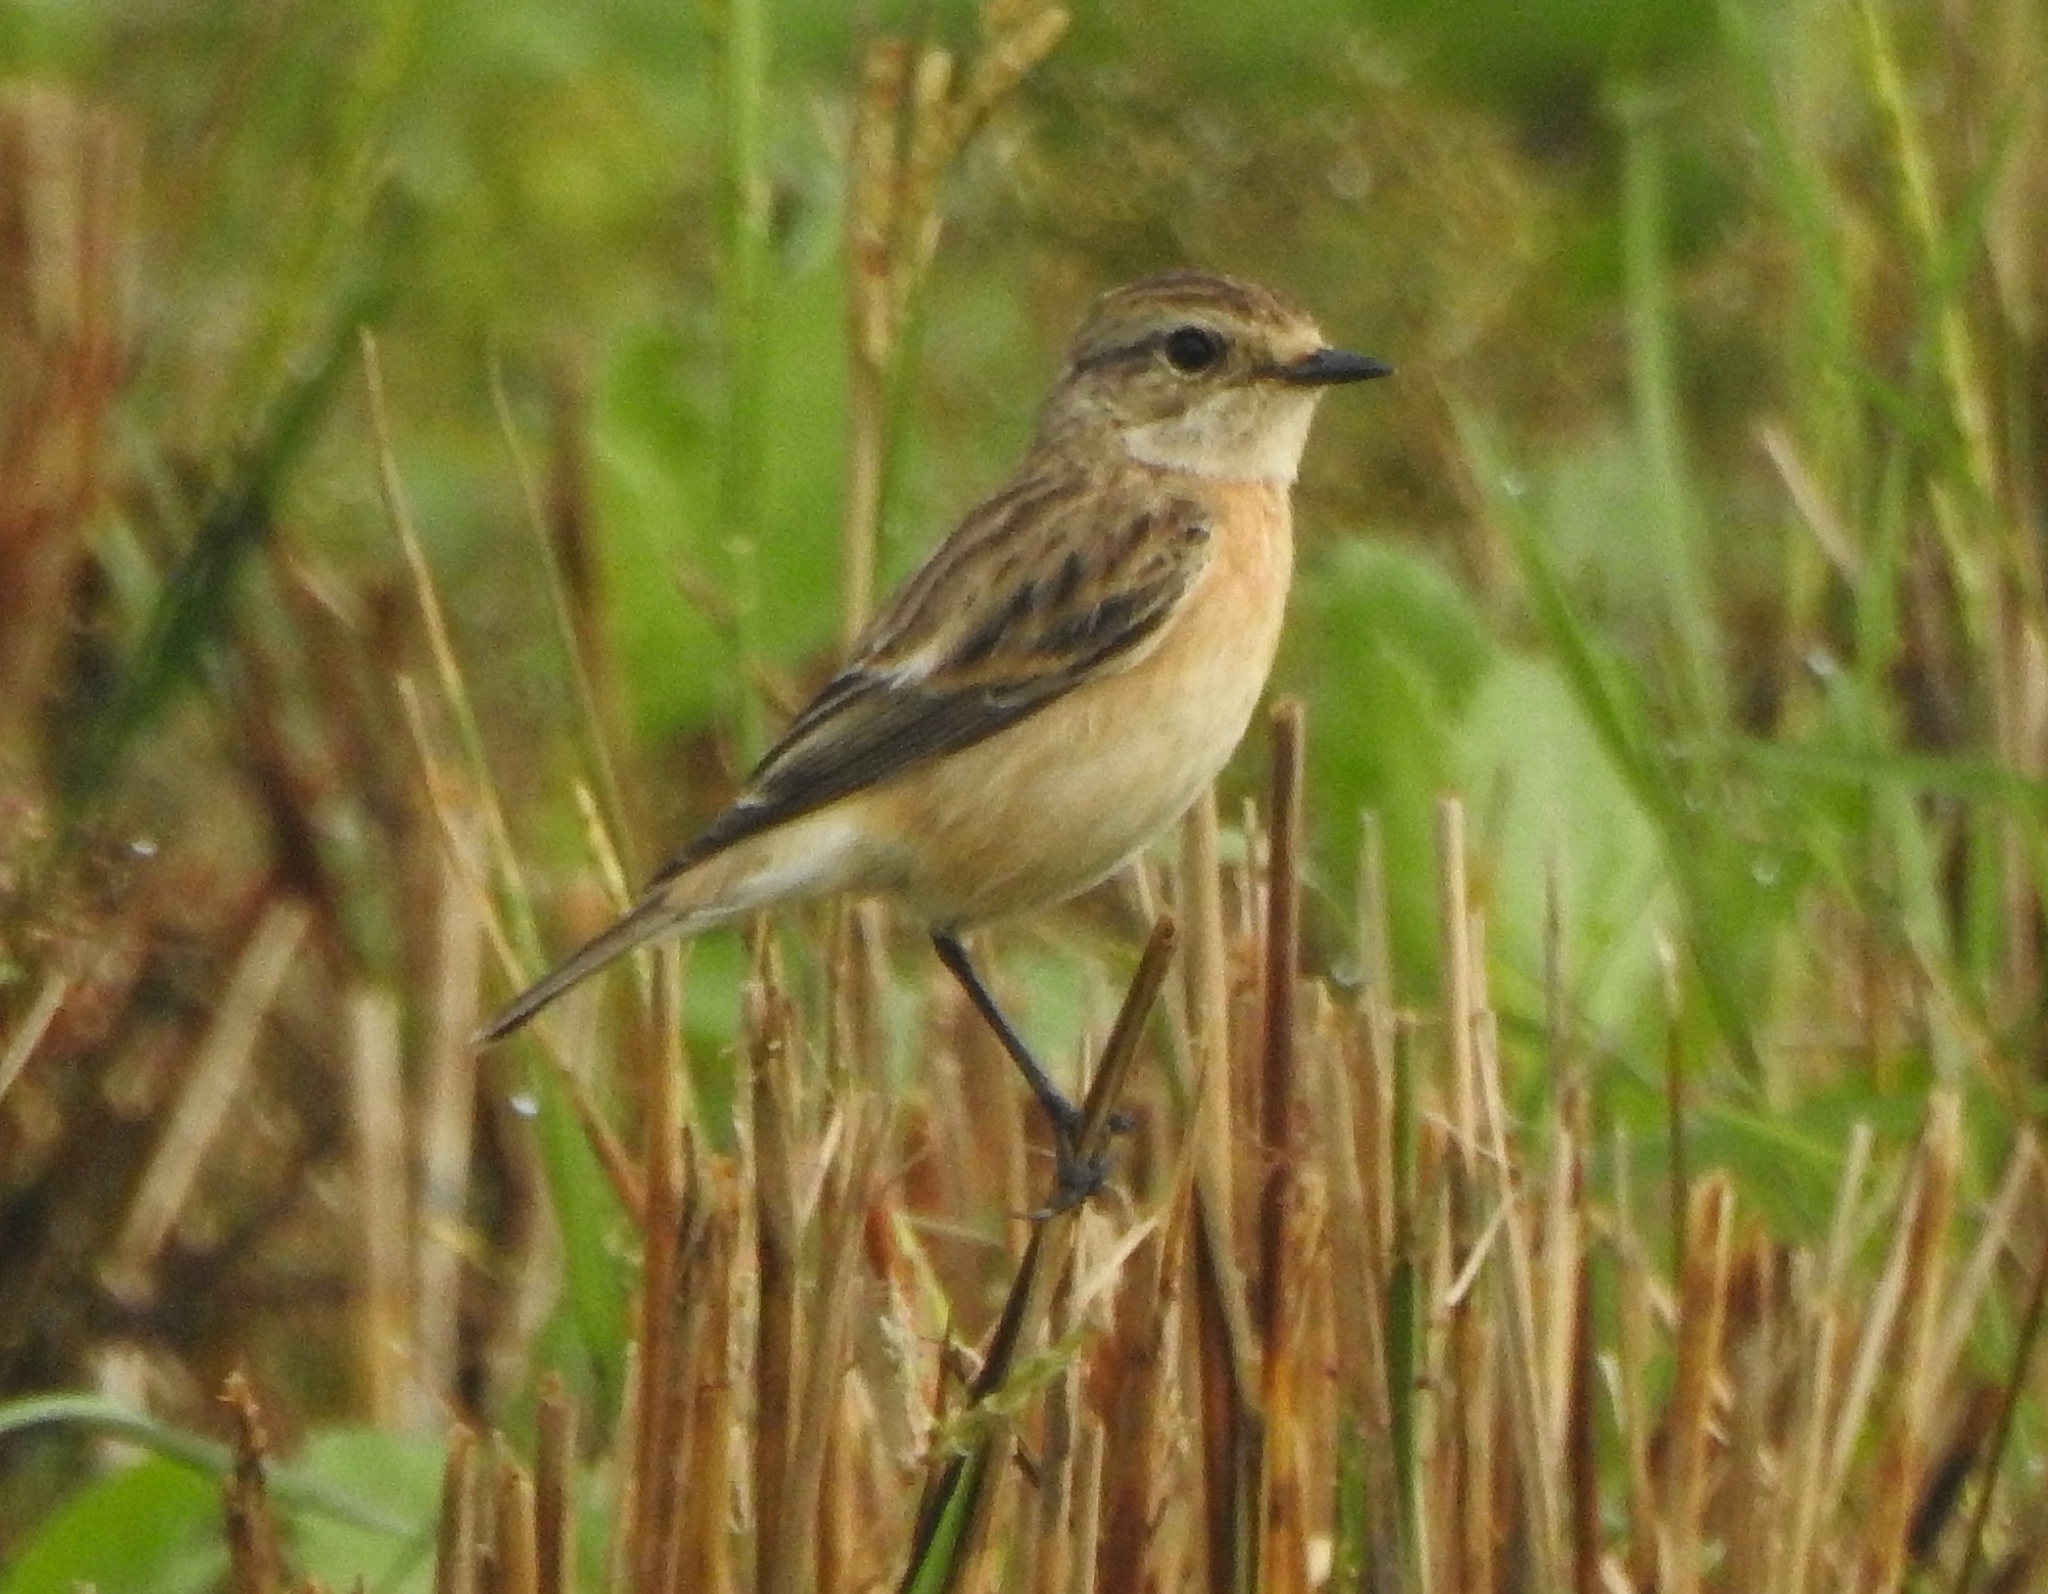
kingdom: Animalia
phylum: Chordata
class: Aves
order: Passeriformes
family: Muscicapidae
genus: Saxicola
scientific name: Saxicola maurus
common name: Siberian stonechat
